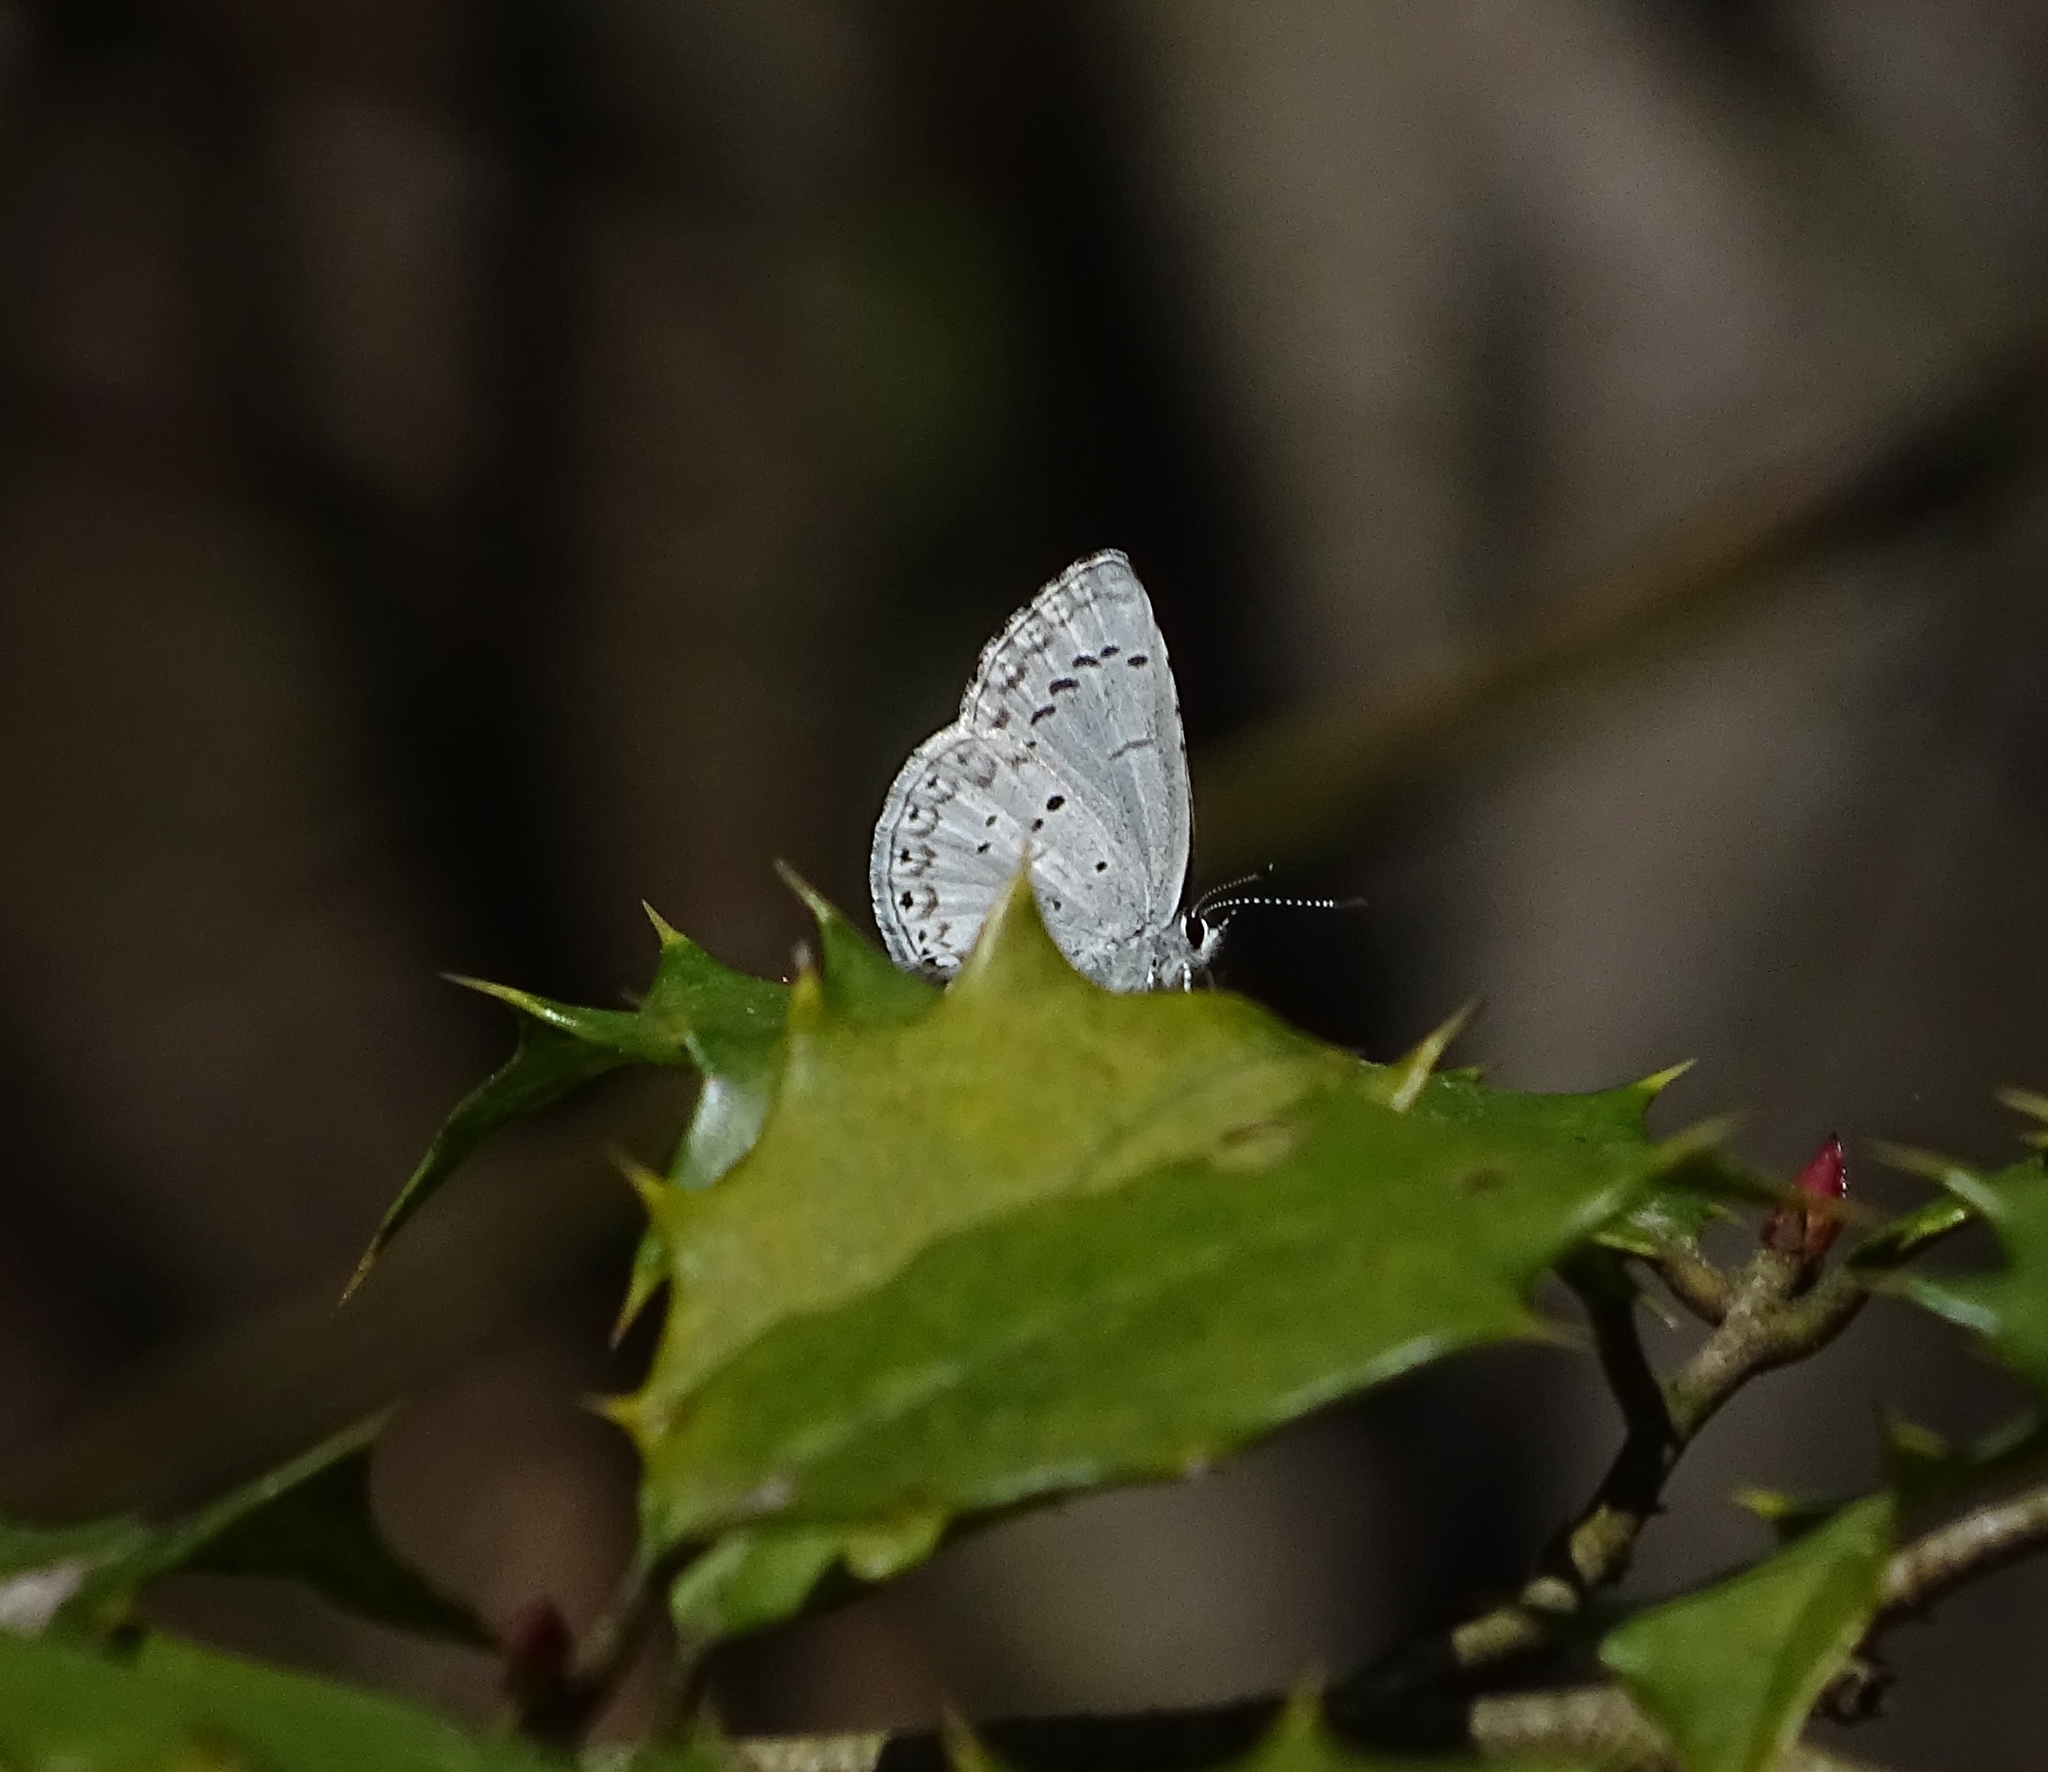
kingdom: Animalia
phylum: Arthropoda
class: Insecta
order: Lepidoptera
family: Lycaenidae
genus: Celastrina
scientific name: Celastrina idella
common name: Holly azure
